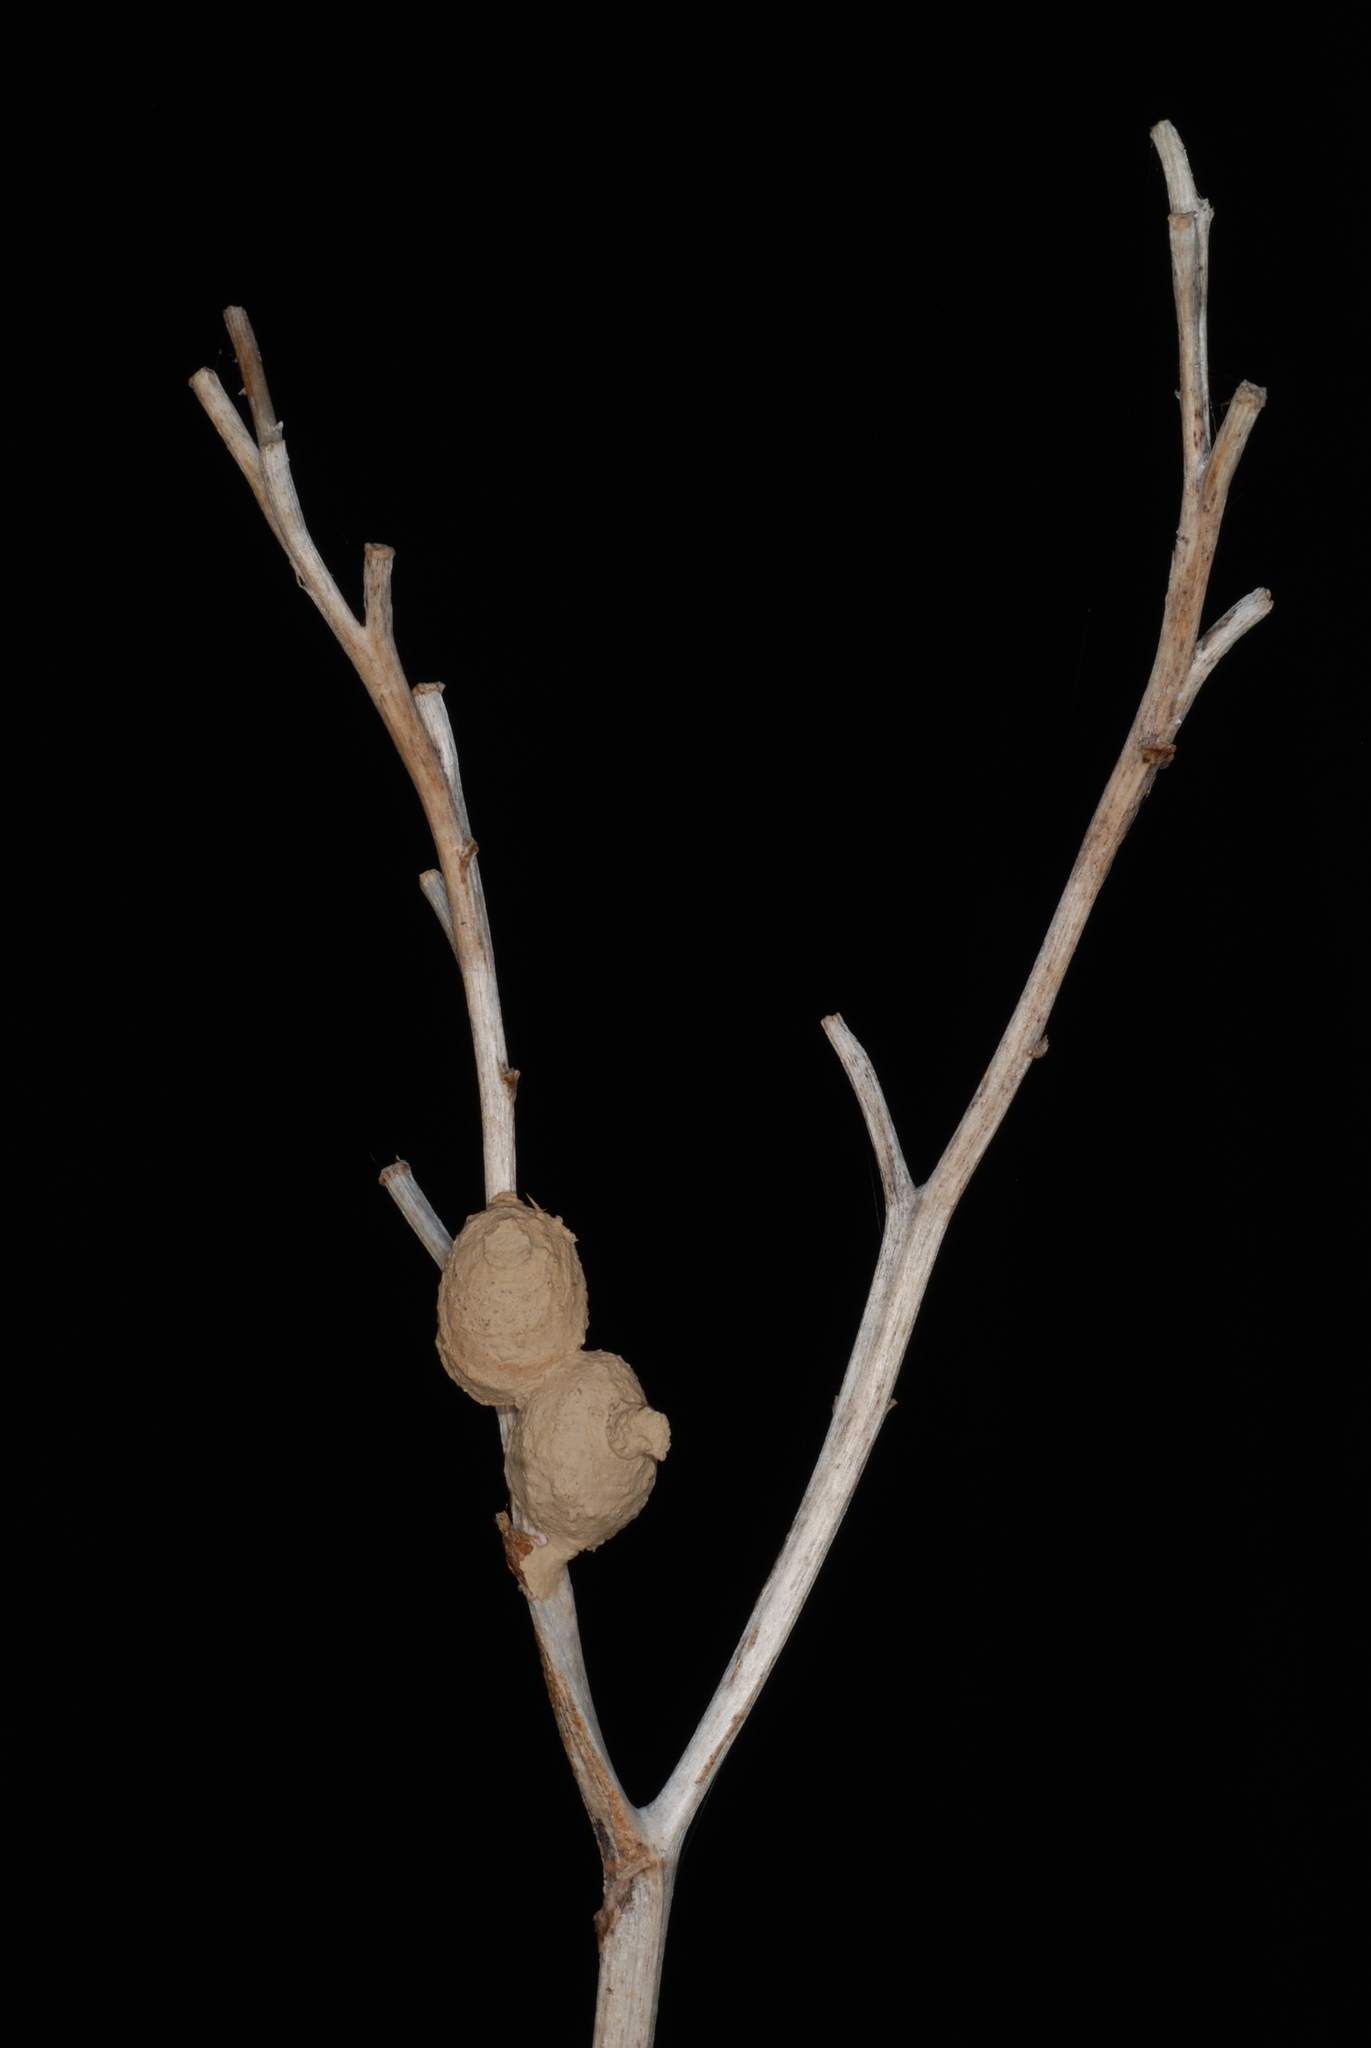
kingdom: Animalia
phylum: Arthropoda
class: Insecta
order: Hymenoptera
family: Vespidae
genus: Eumenes
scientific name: Eumenes
